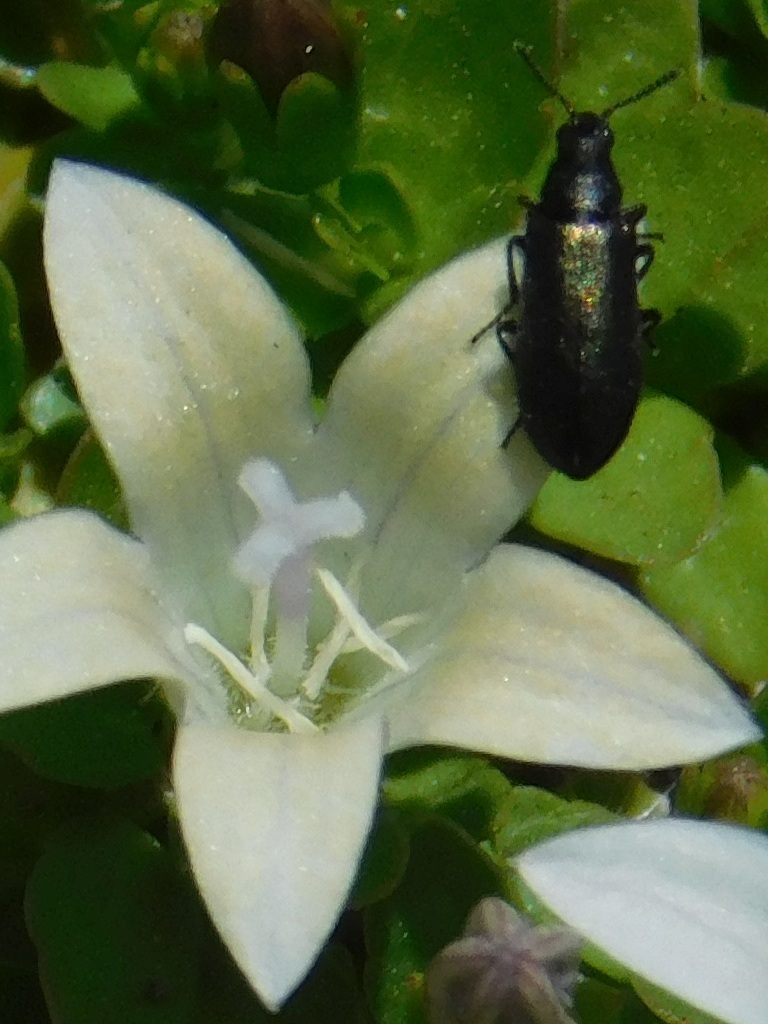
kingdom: Plantae
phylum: Tracheophyta
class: Magnoliopsida
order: Asterales
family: Campanulaceae
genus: Wahlenbergia
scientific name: Wahlenbergia procumbens
